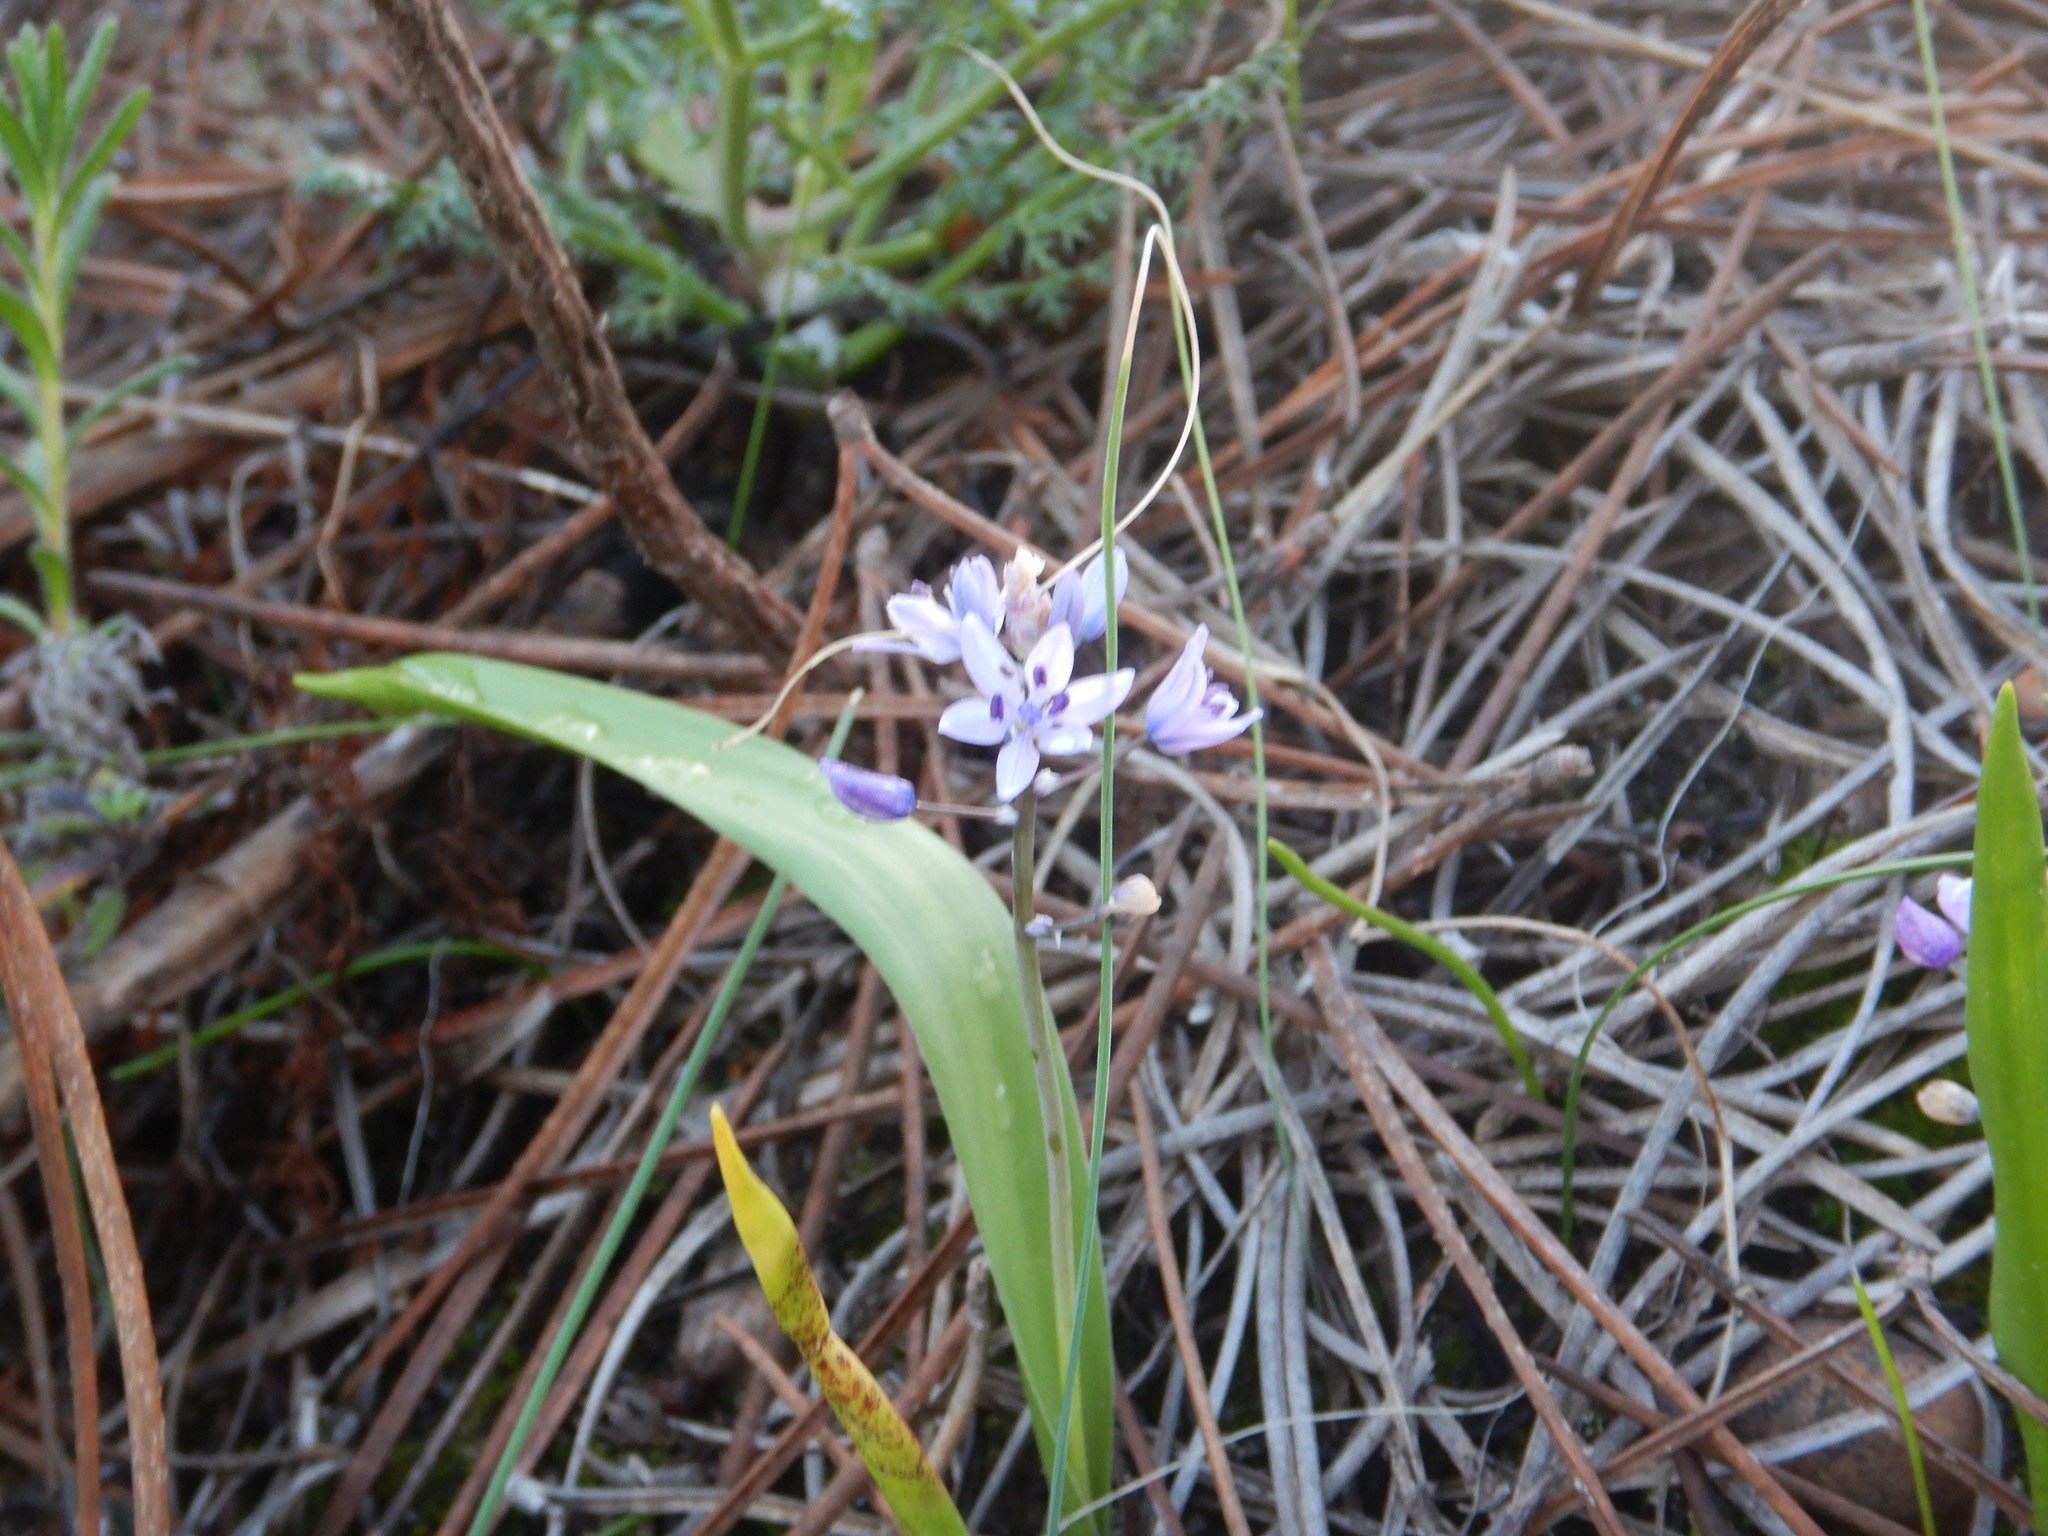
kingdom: Plantae
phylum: Tracheophyta
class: Liliopsida
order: Asparagales
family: Asparagaceae
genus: Scilla
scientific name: Scilla monophyllos
